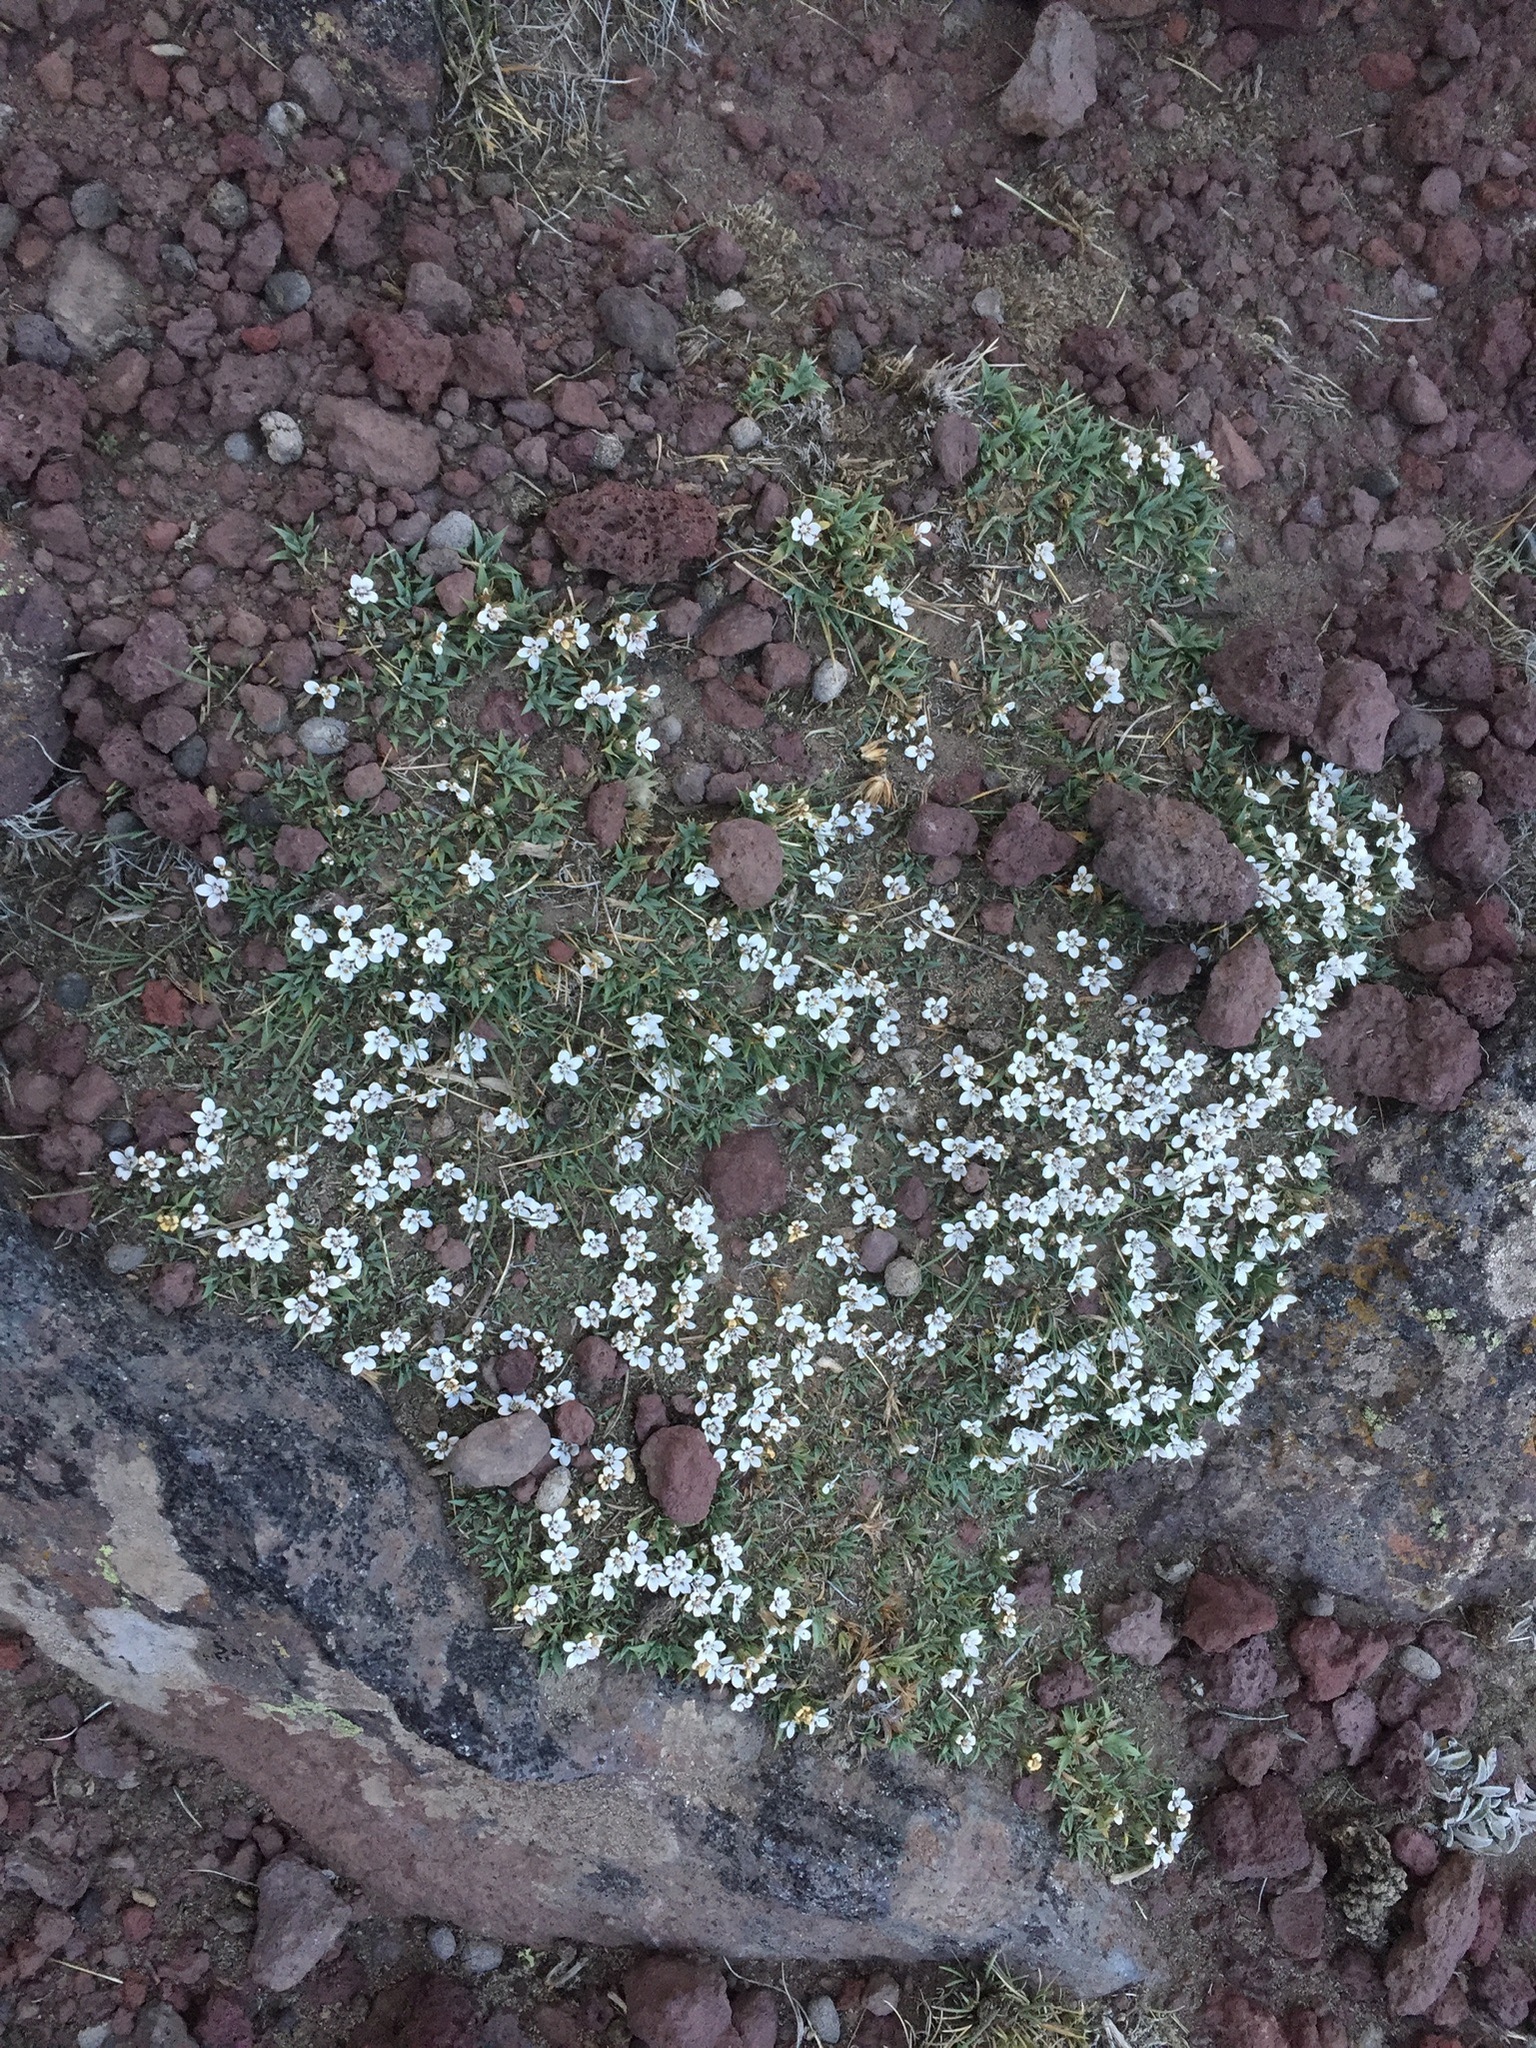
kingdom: Plantae
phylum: Tracheophyta
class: Magnoliopsida
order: Asterales
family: Asteraceae
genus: Nassauvia
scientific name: Nassauvia aculeata
